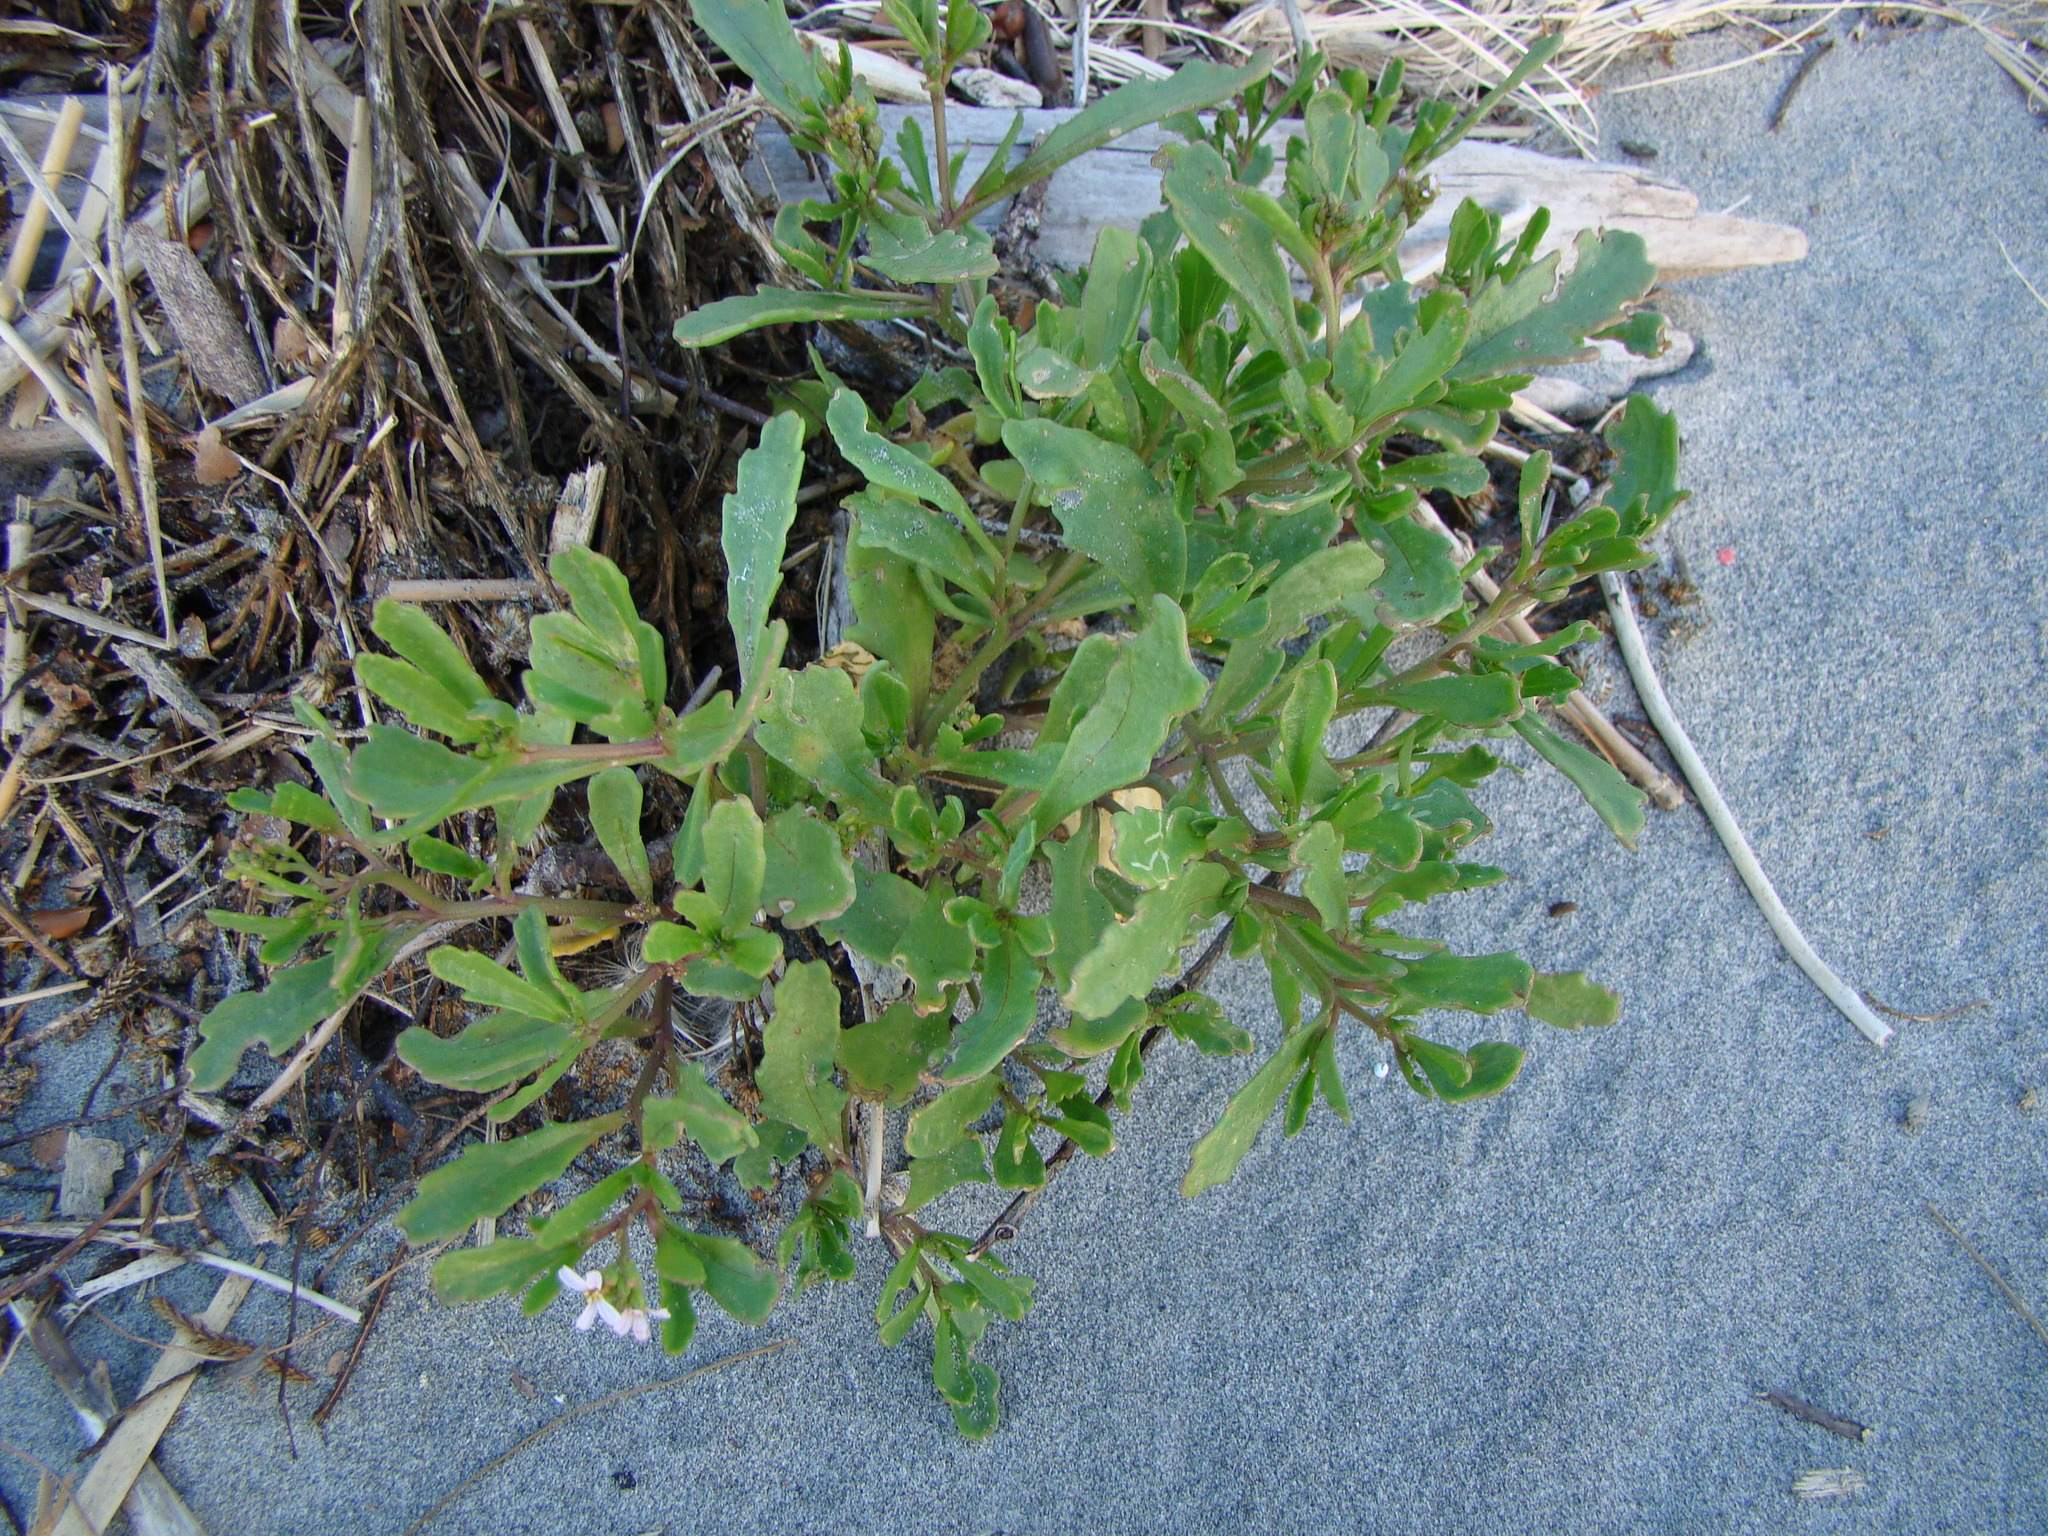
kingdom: Plantae
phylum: Tracheophyta
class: Magnoliopsida
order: Brassicales
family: Brassicaceae
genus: Cakile
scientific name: Cakile
